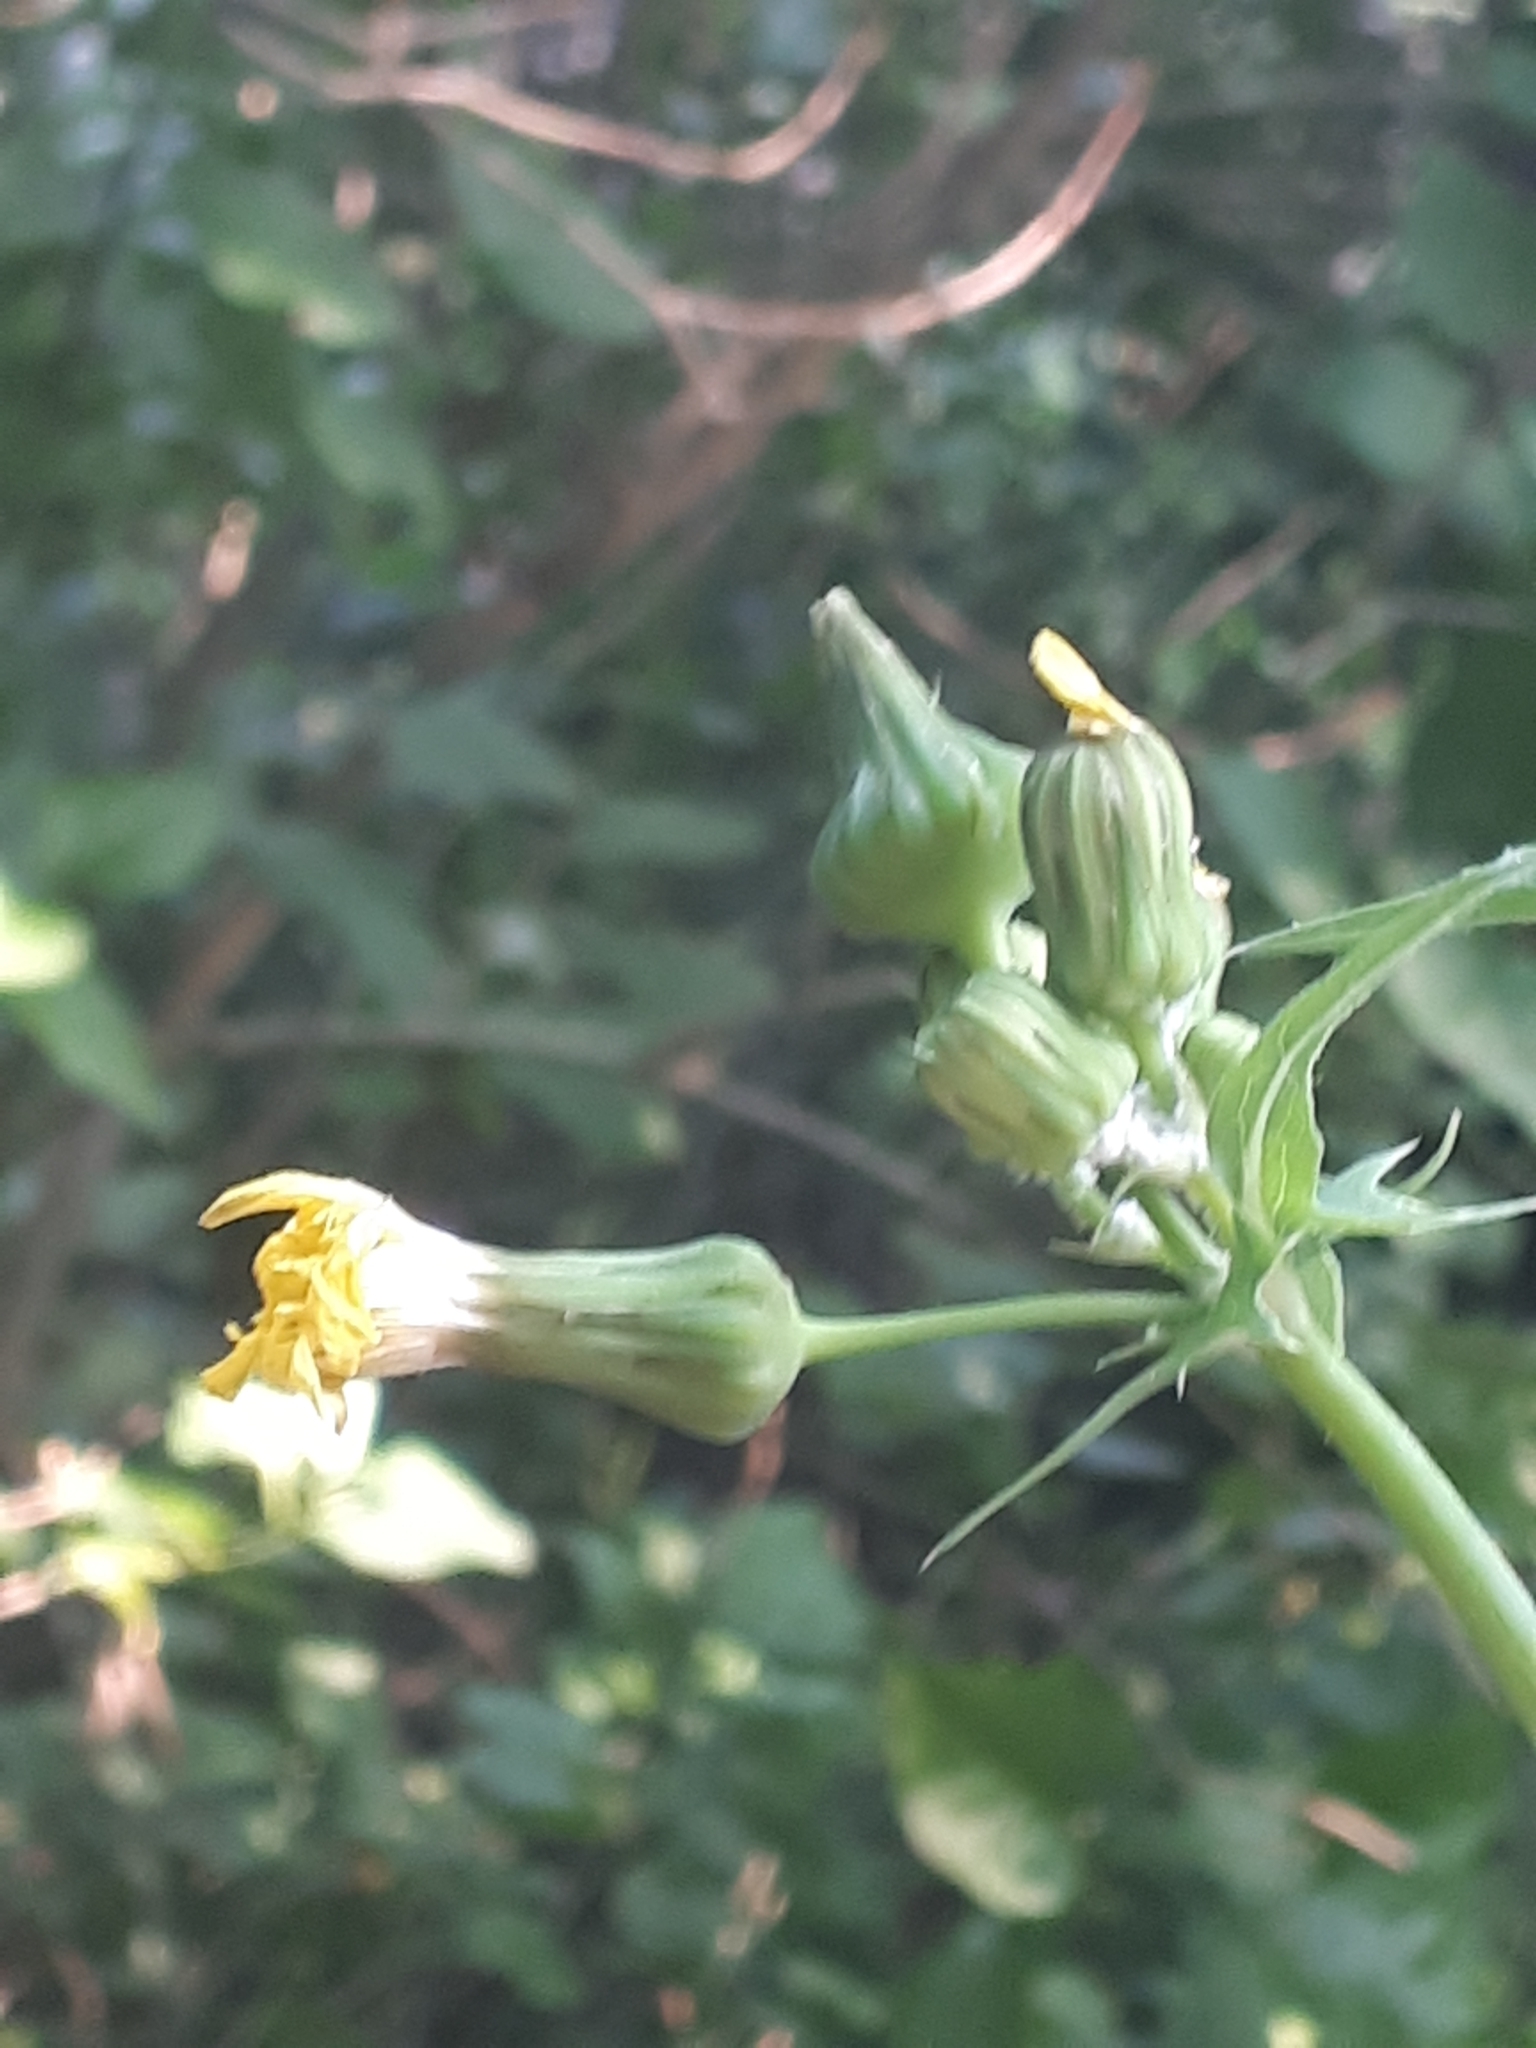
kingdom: Plantae
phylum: Tracheophyta
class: Magnoliopsida
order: Asterales
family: Asteraceae
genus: Sonchus
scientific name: Sonchus oleraceus
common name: Common sowthistle
